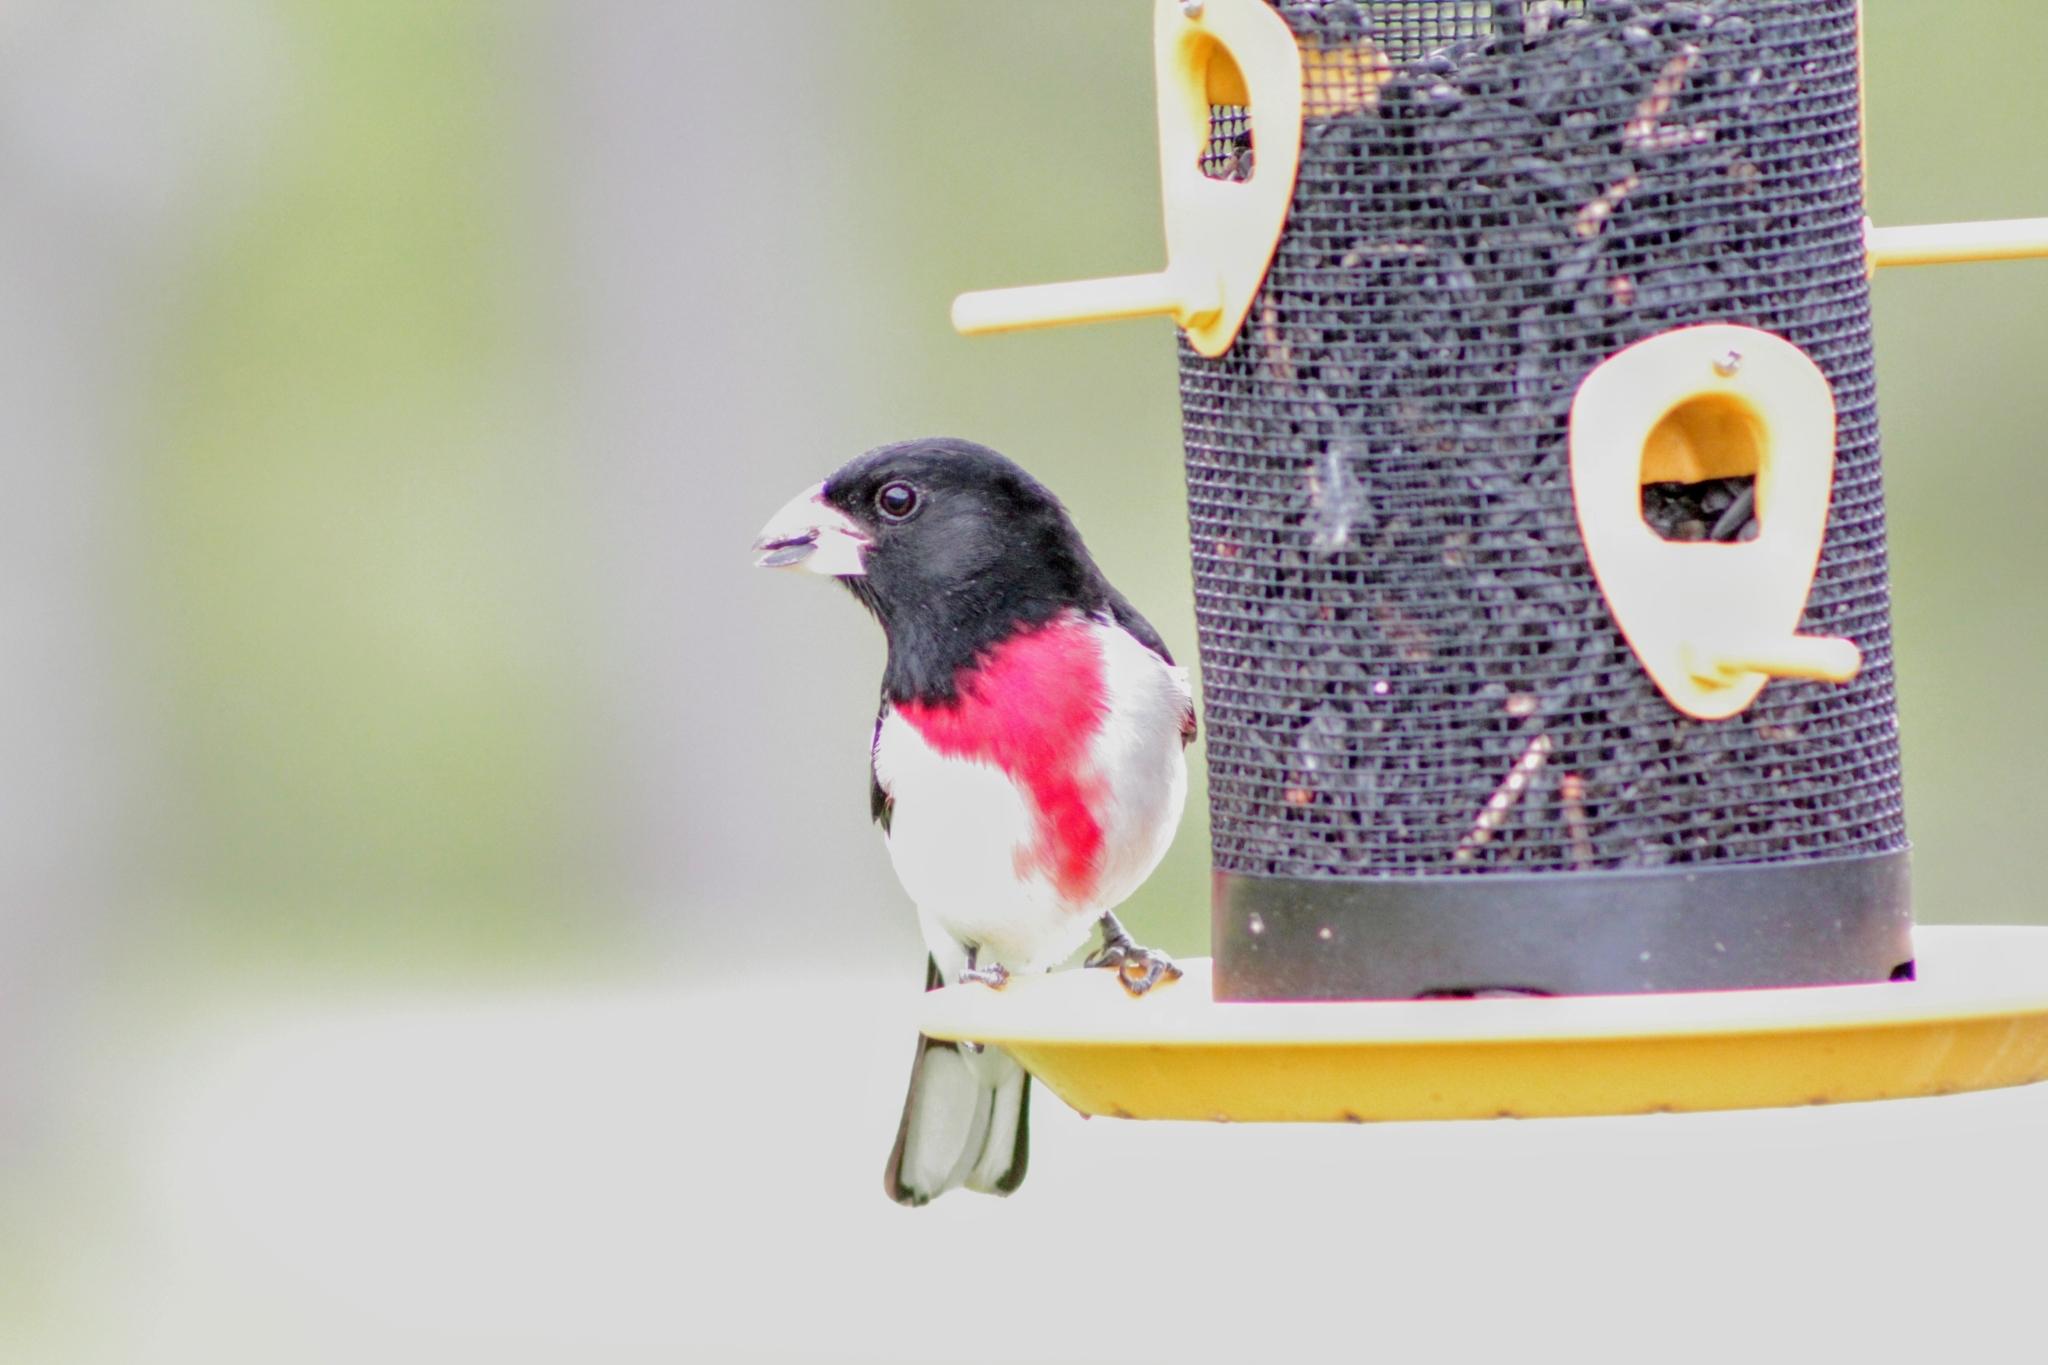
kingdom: Animalia
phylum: Chordata
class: Aves
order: Passeriformes
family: Cardinalidae
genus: Pheucticus
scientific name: Pheucticus ludovicianus
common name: Rose-breasted grosbeak
